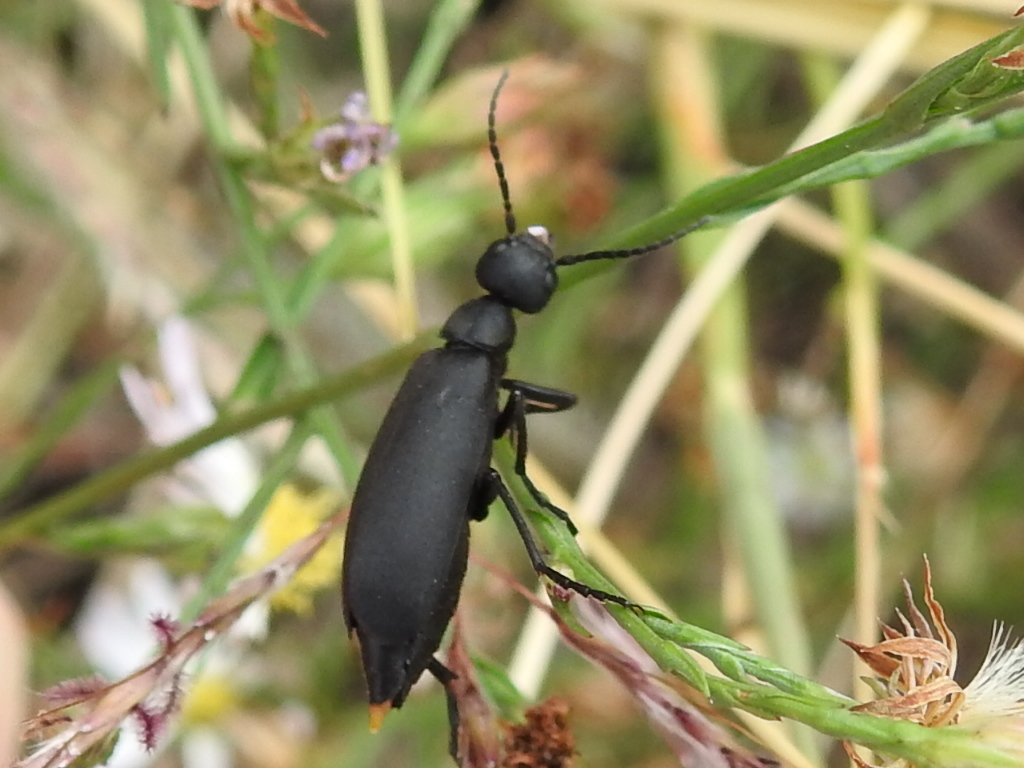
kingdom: Animalia
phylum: Arthropoda
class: Insecta
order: Coleoptera
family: Meloidae
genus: Epicauta
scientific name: Epicauta pensylvanica
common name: Black blister beetle
